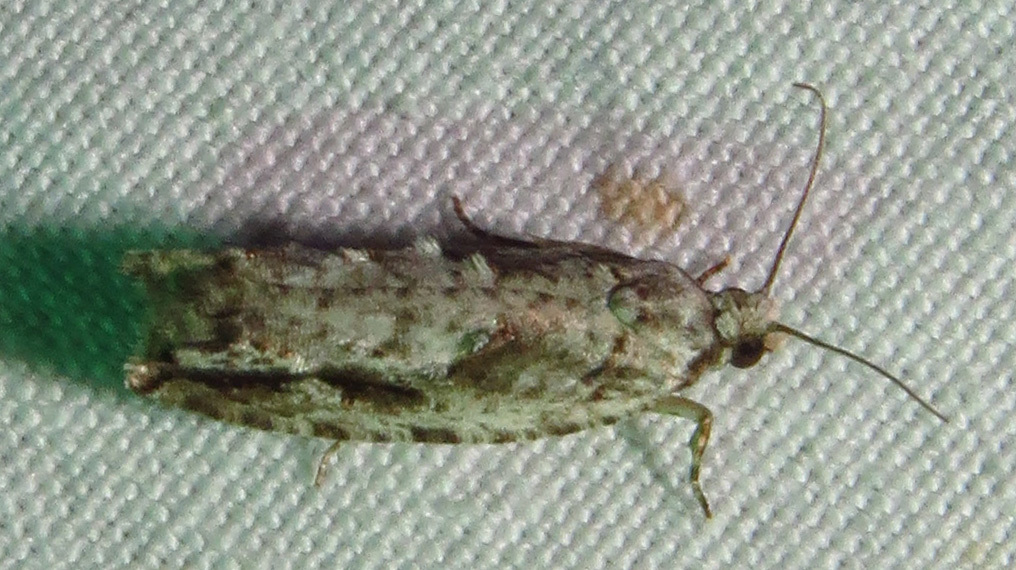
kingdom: Animalia
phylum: Arthropoda
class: Insecta
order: Lepidoptera
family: Tortricidae
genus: Gretchena
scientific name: Gretchena bolliana
